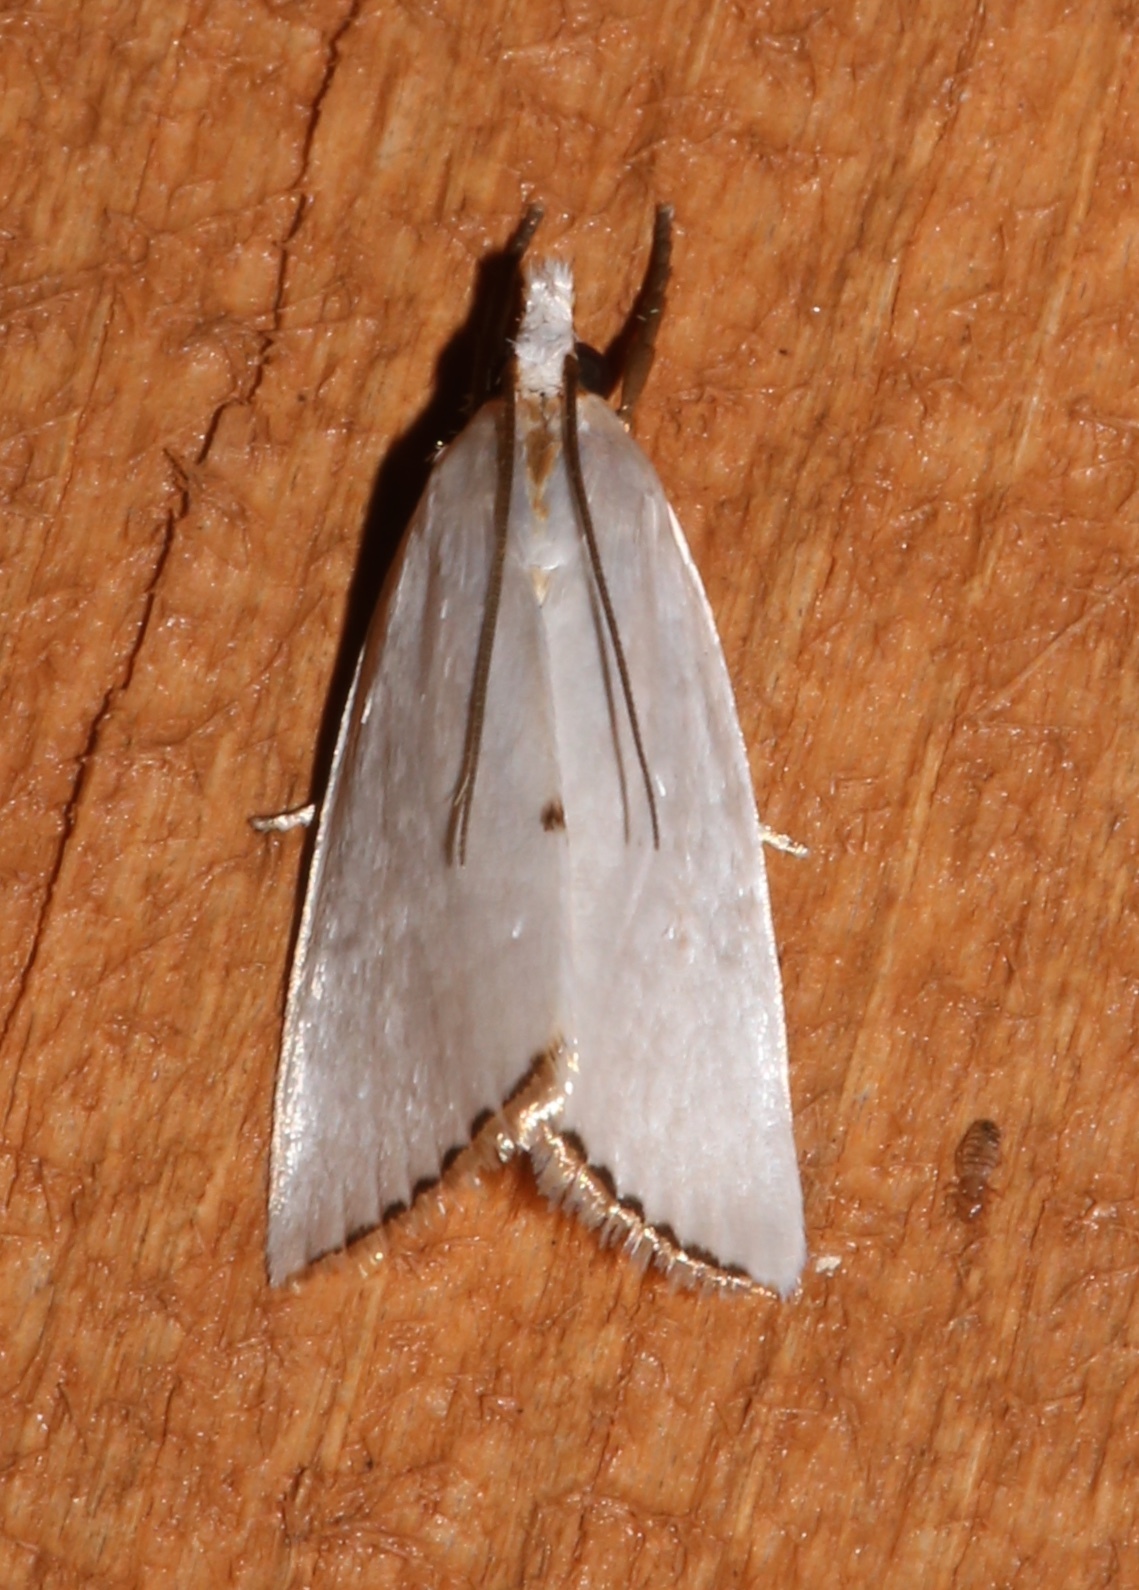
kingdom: Animalia
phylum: Arthropoda
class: Insecta
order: Lepidoptera
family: Crambidae
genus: Argyria
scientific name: Argyria nivalis
